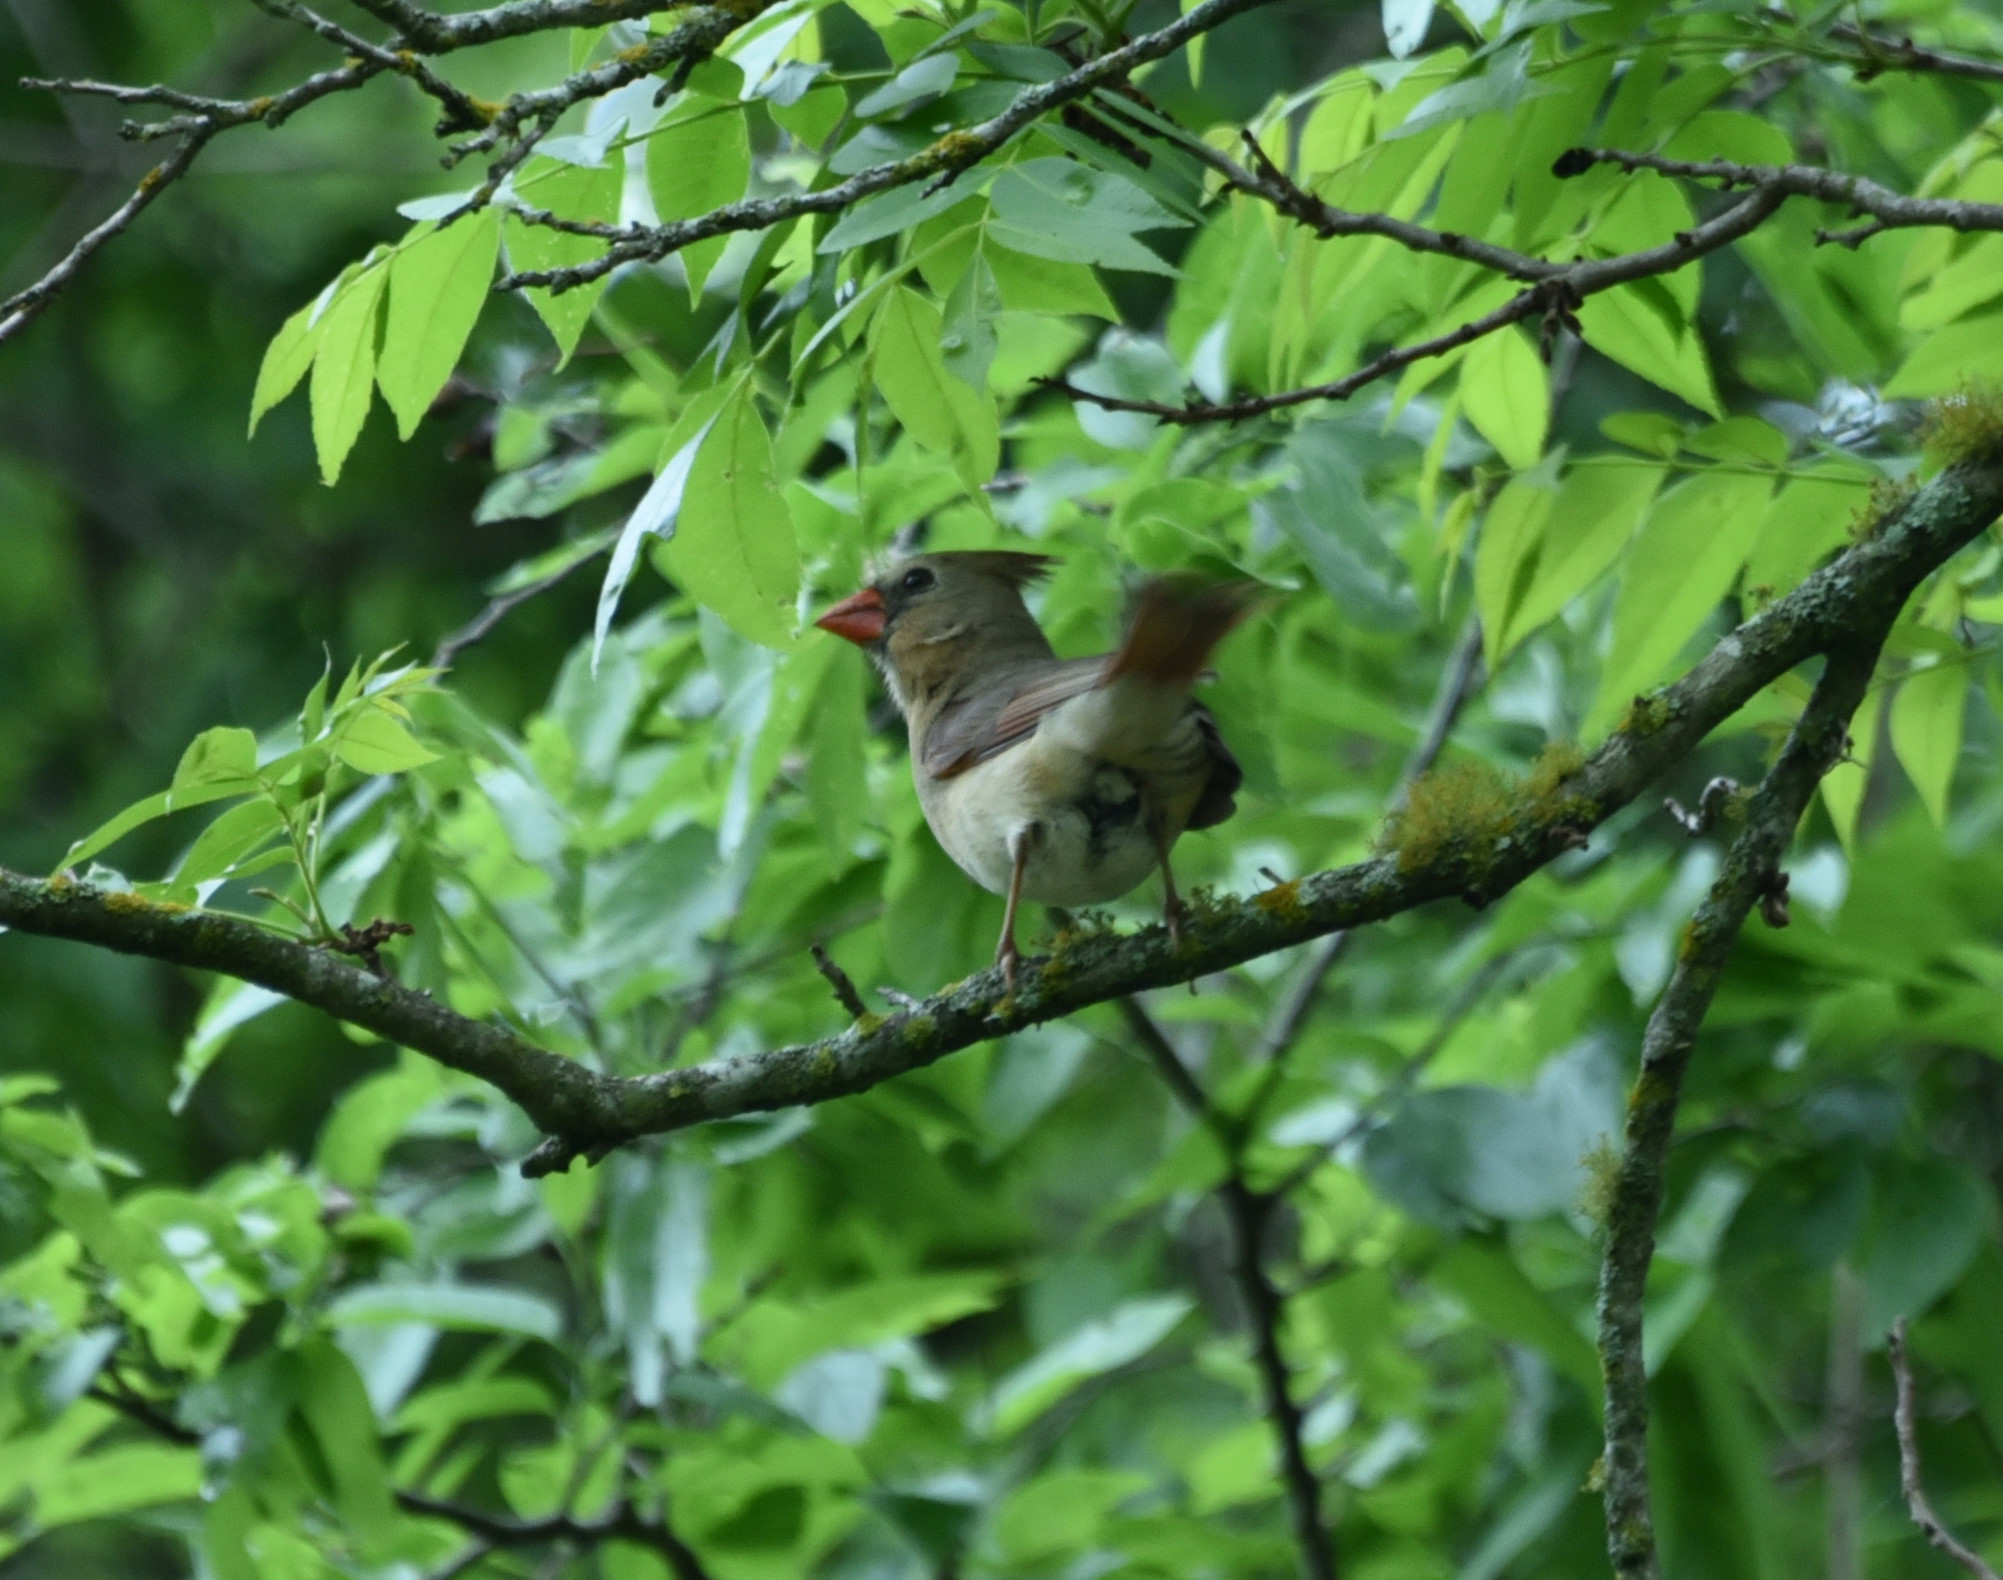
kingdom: Animalia
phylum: Chordata
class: Aves
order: Passeriformes
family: Cardinalidae
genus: Cardinalis
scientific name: Cardinalis cardinalis
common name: Northern cardinal
